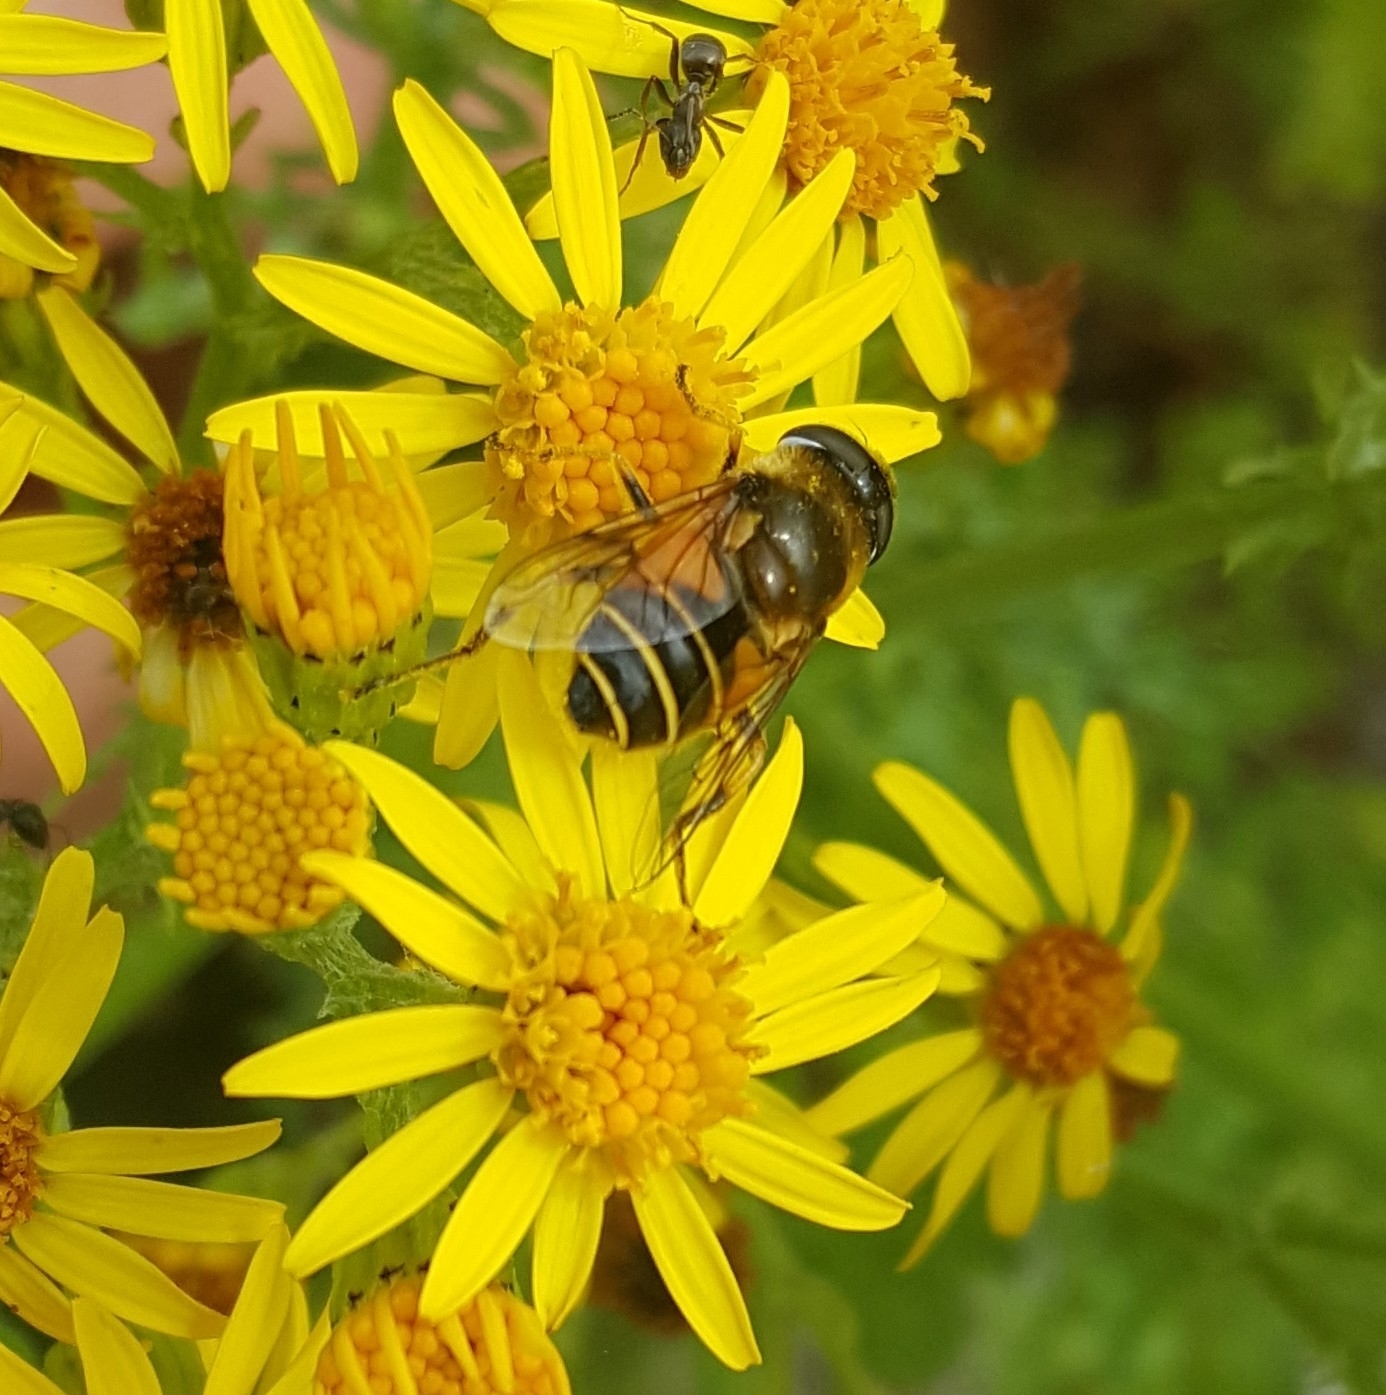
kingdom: Animalia
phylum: Arthropoda
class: Insecta
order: Diptera
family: Syrphidae
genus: Cheilosia
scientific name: Cheilosia morio
